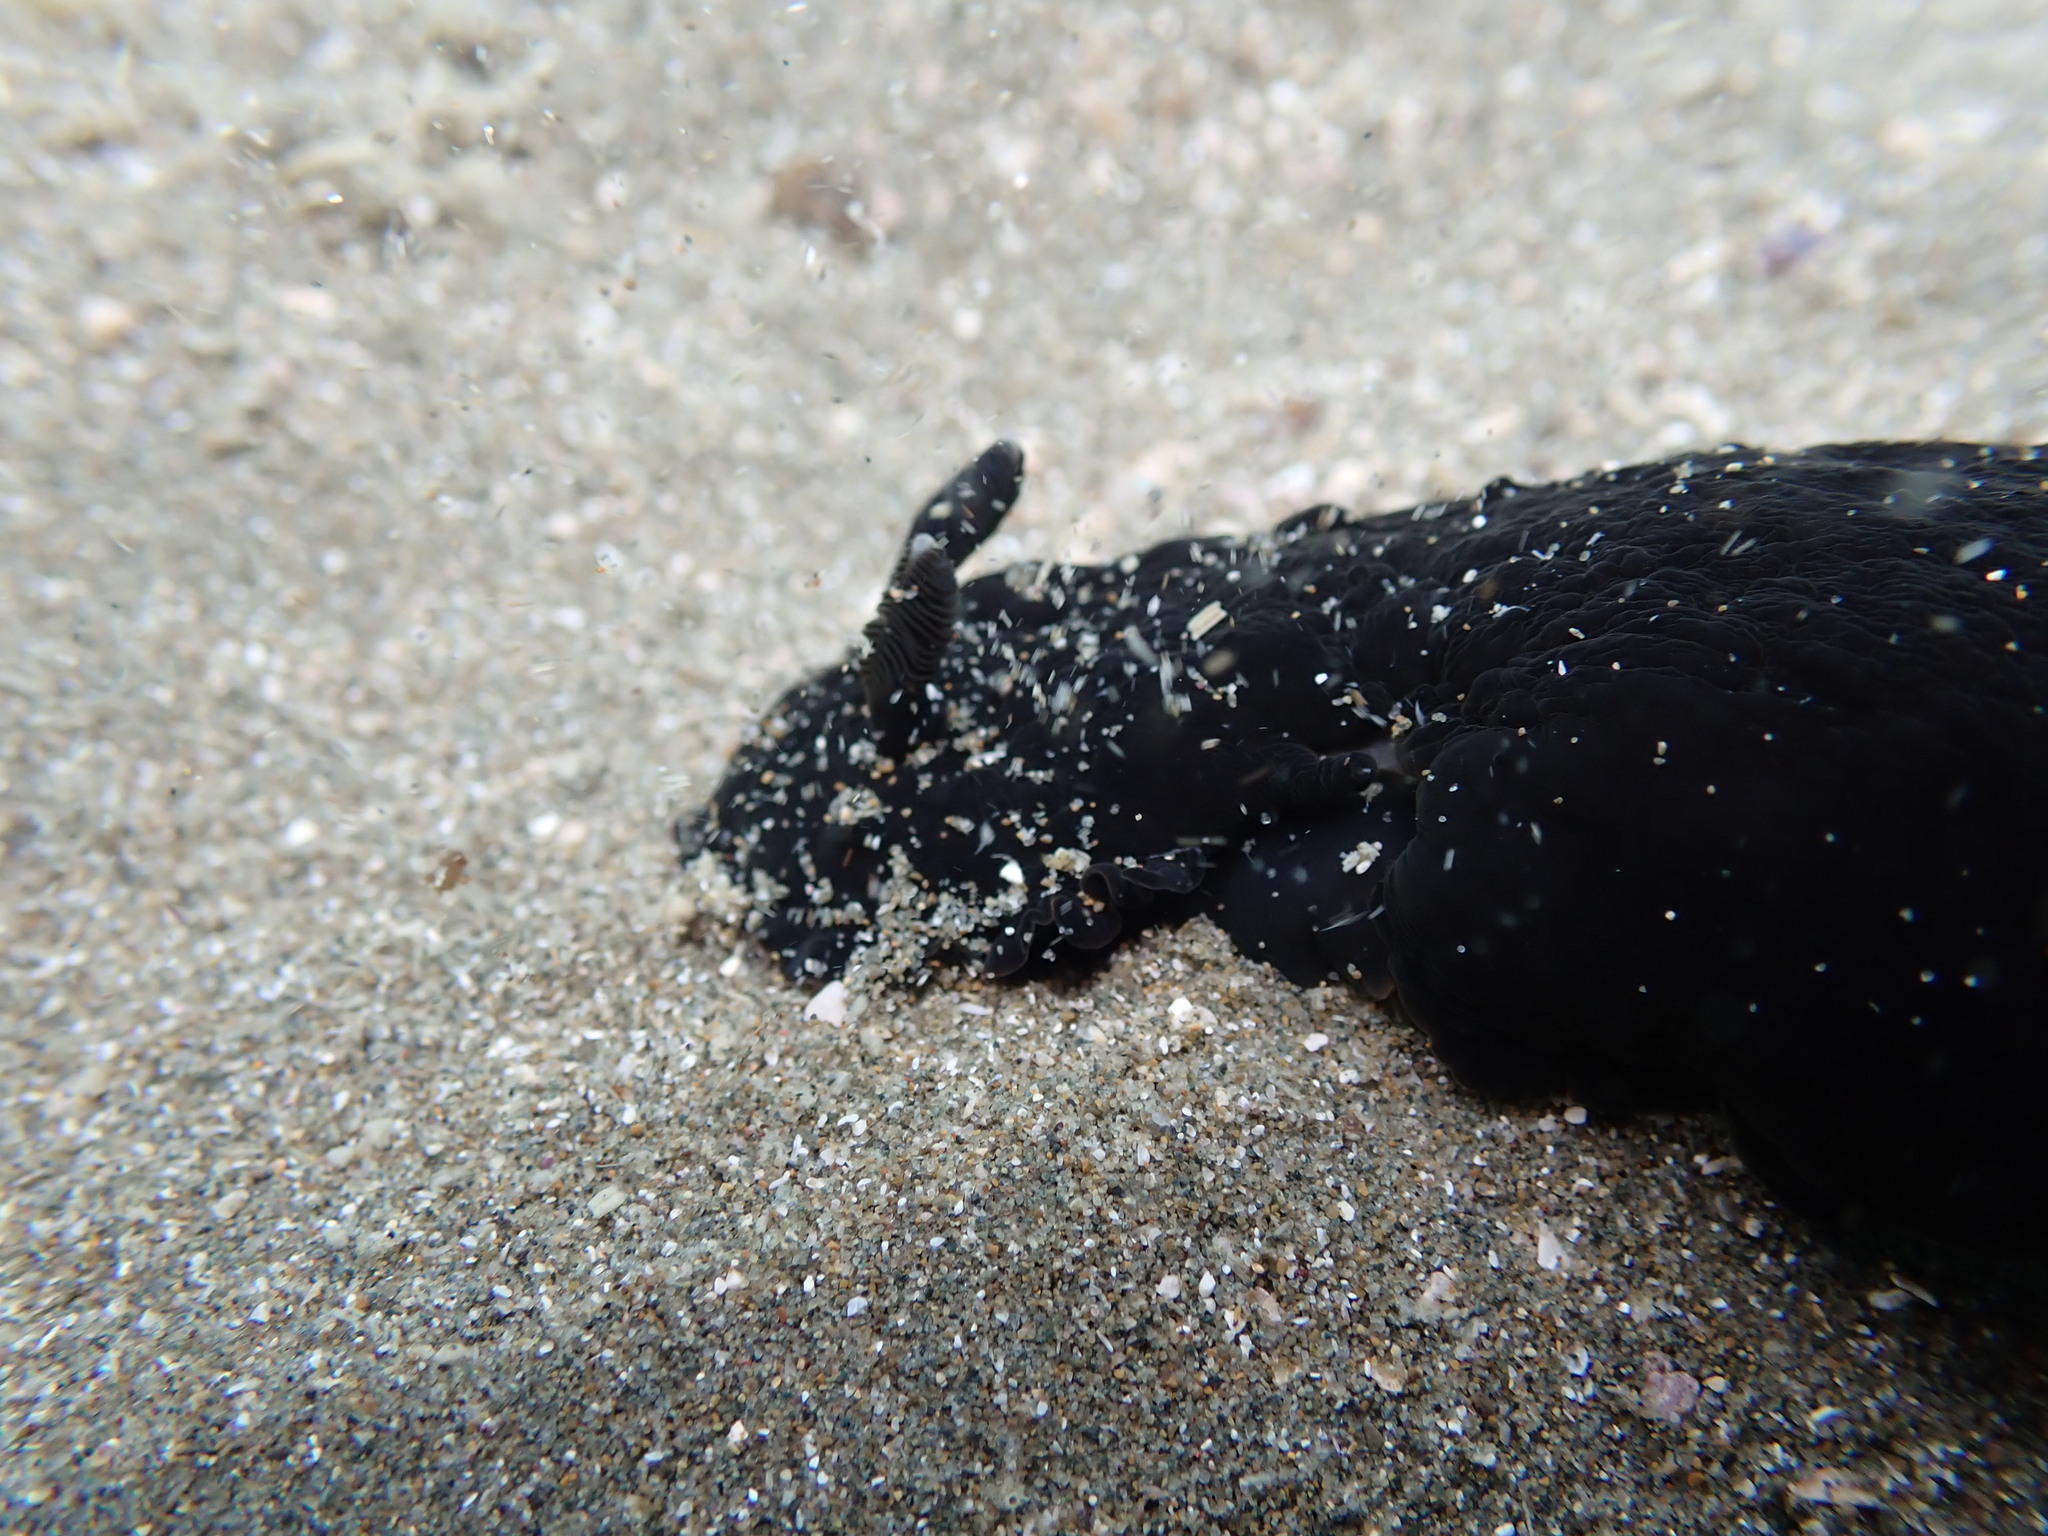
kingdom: Animalia
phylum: Mollusca
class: Gastropoda
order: Nudibranchia
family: Dendrodorididae
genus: Dendrodoris
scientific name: Dendrodoris nigra
